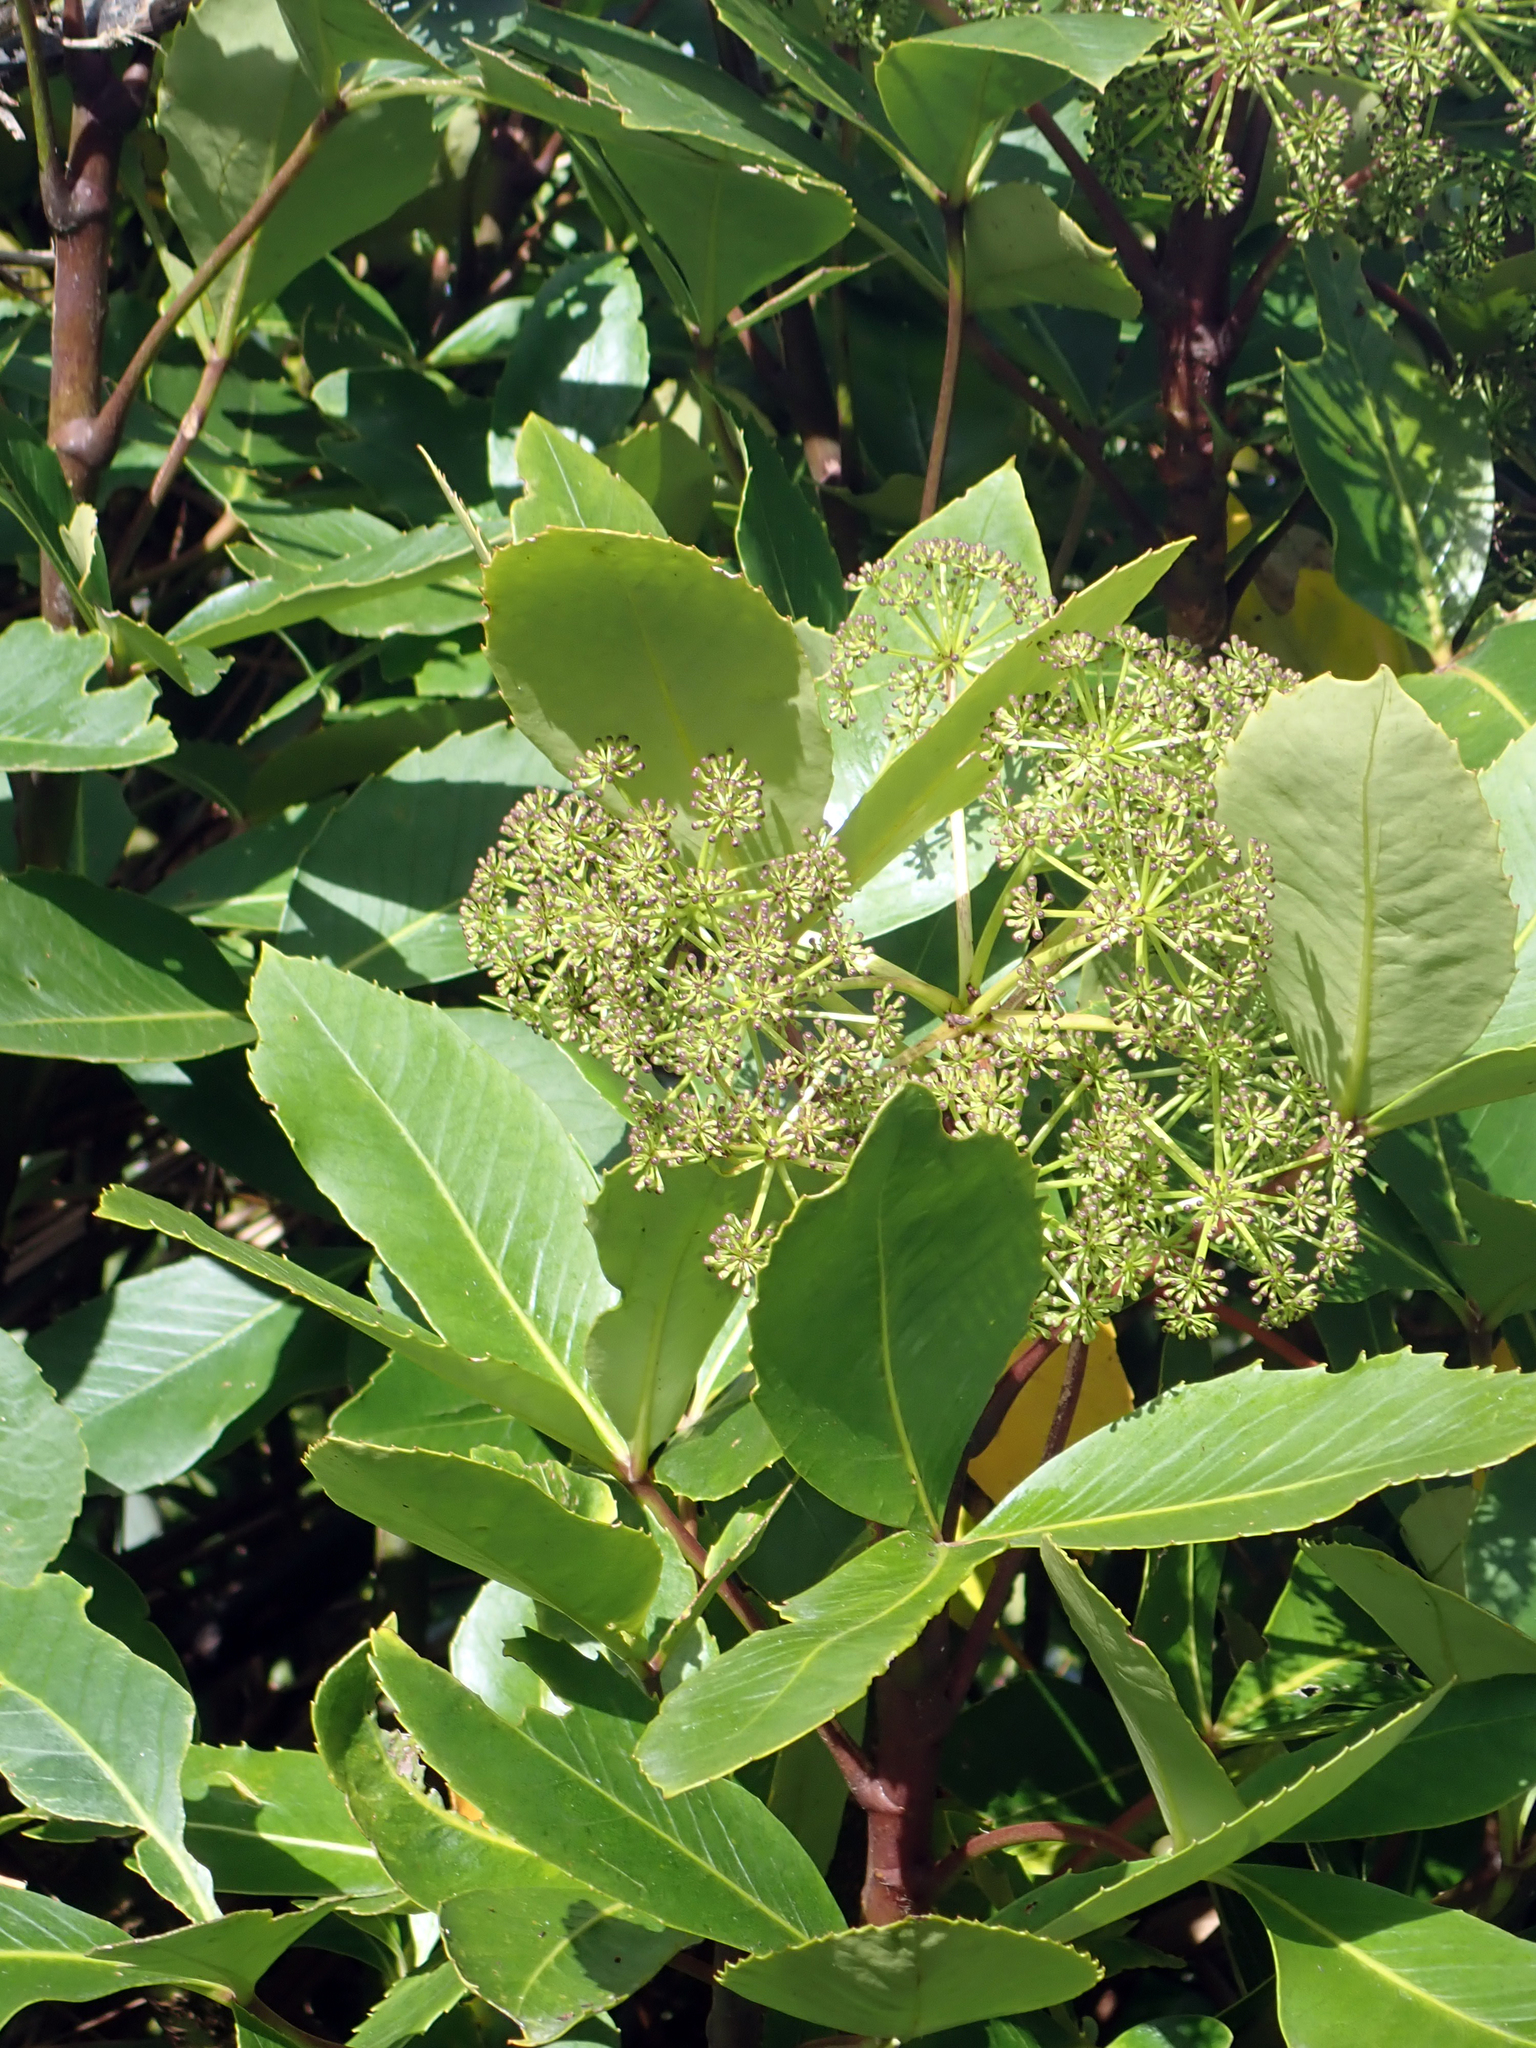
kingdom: Plantae
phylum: Tracheophyta
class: Magnoliopsida
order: Apiales
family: Araliaceae
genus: Neopanax
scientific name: Neopanax colensoi
